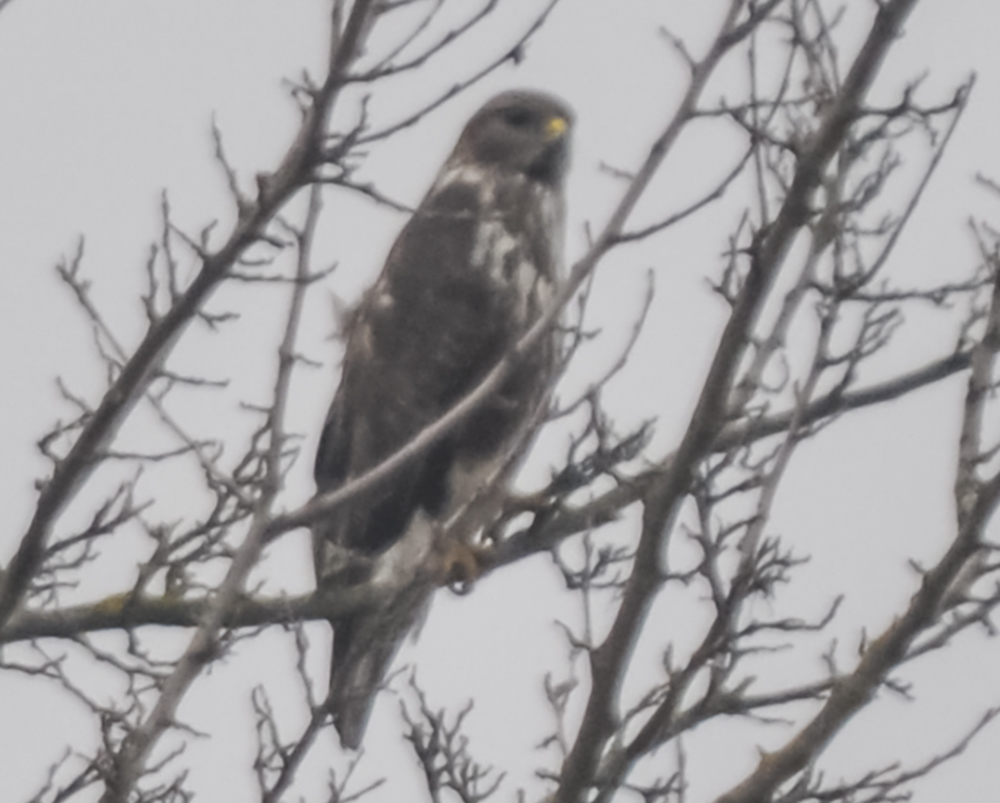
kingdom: Animalia
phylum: Chordata
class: Aves
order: Accipitriformes
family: Accipitridae
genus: Buteo
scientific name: Buteo buteo
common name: Common buzzard
